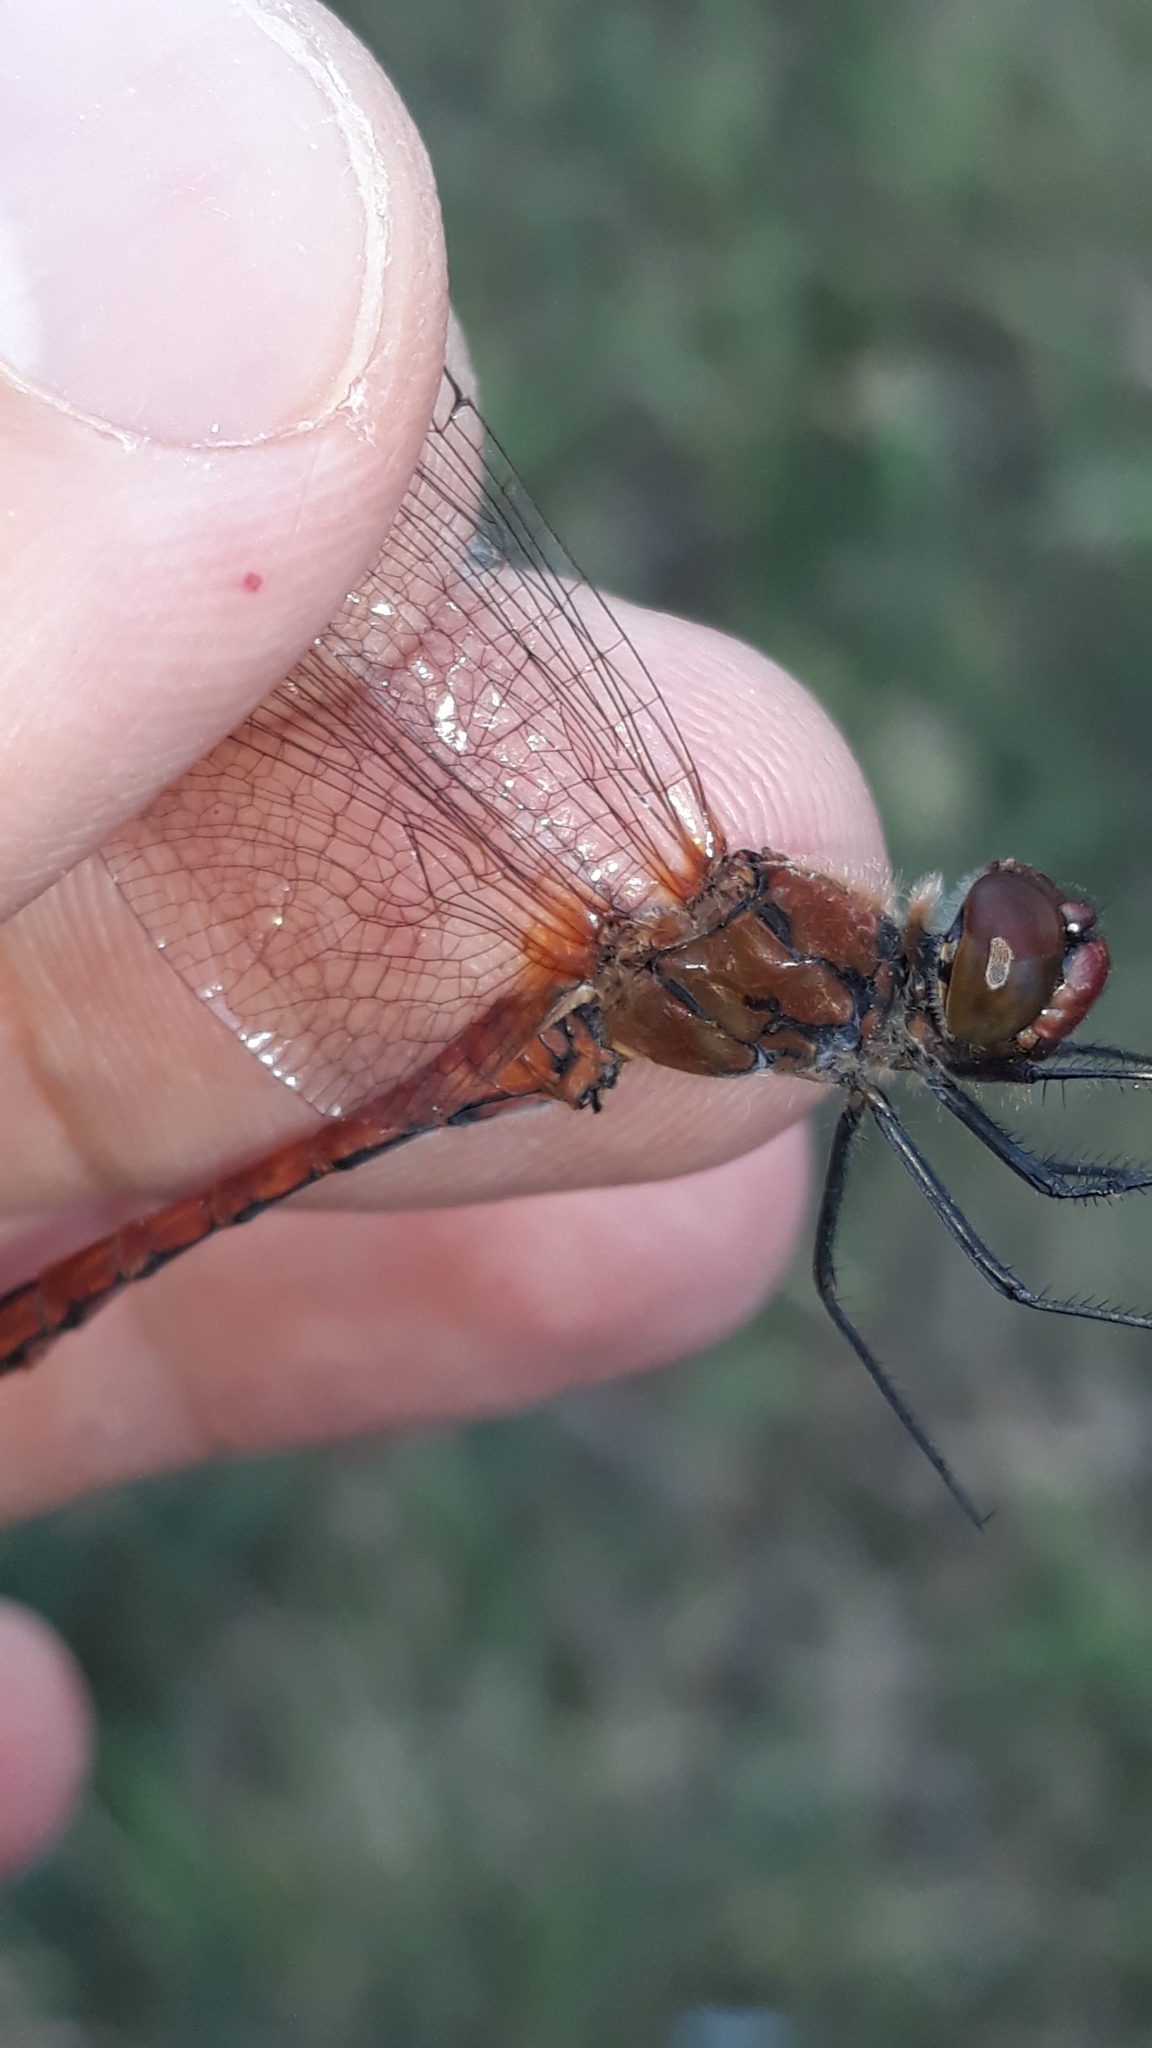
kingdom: Animalia
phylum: Arthropoda
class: Insecta
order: Odonata
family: Libellulidae
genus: Sympetrum
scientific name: Sympetrum sanguineum
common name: Ruddy darter
